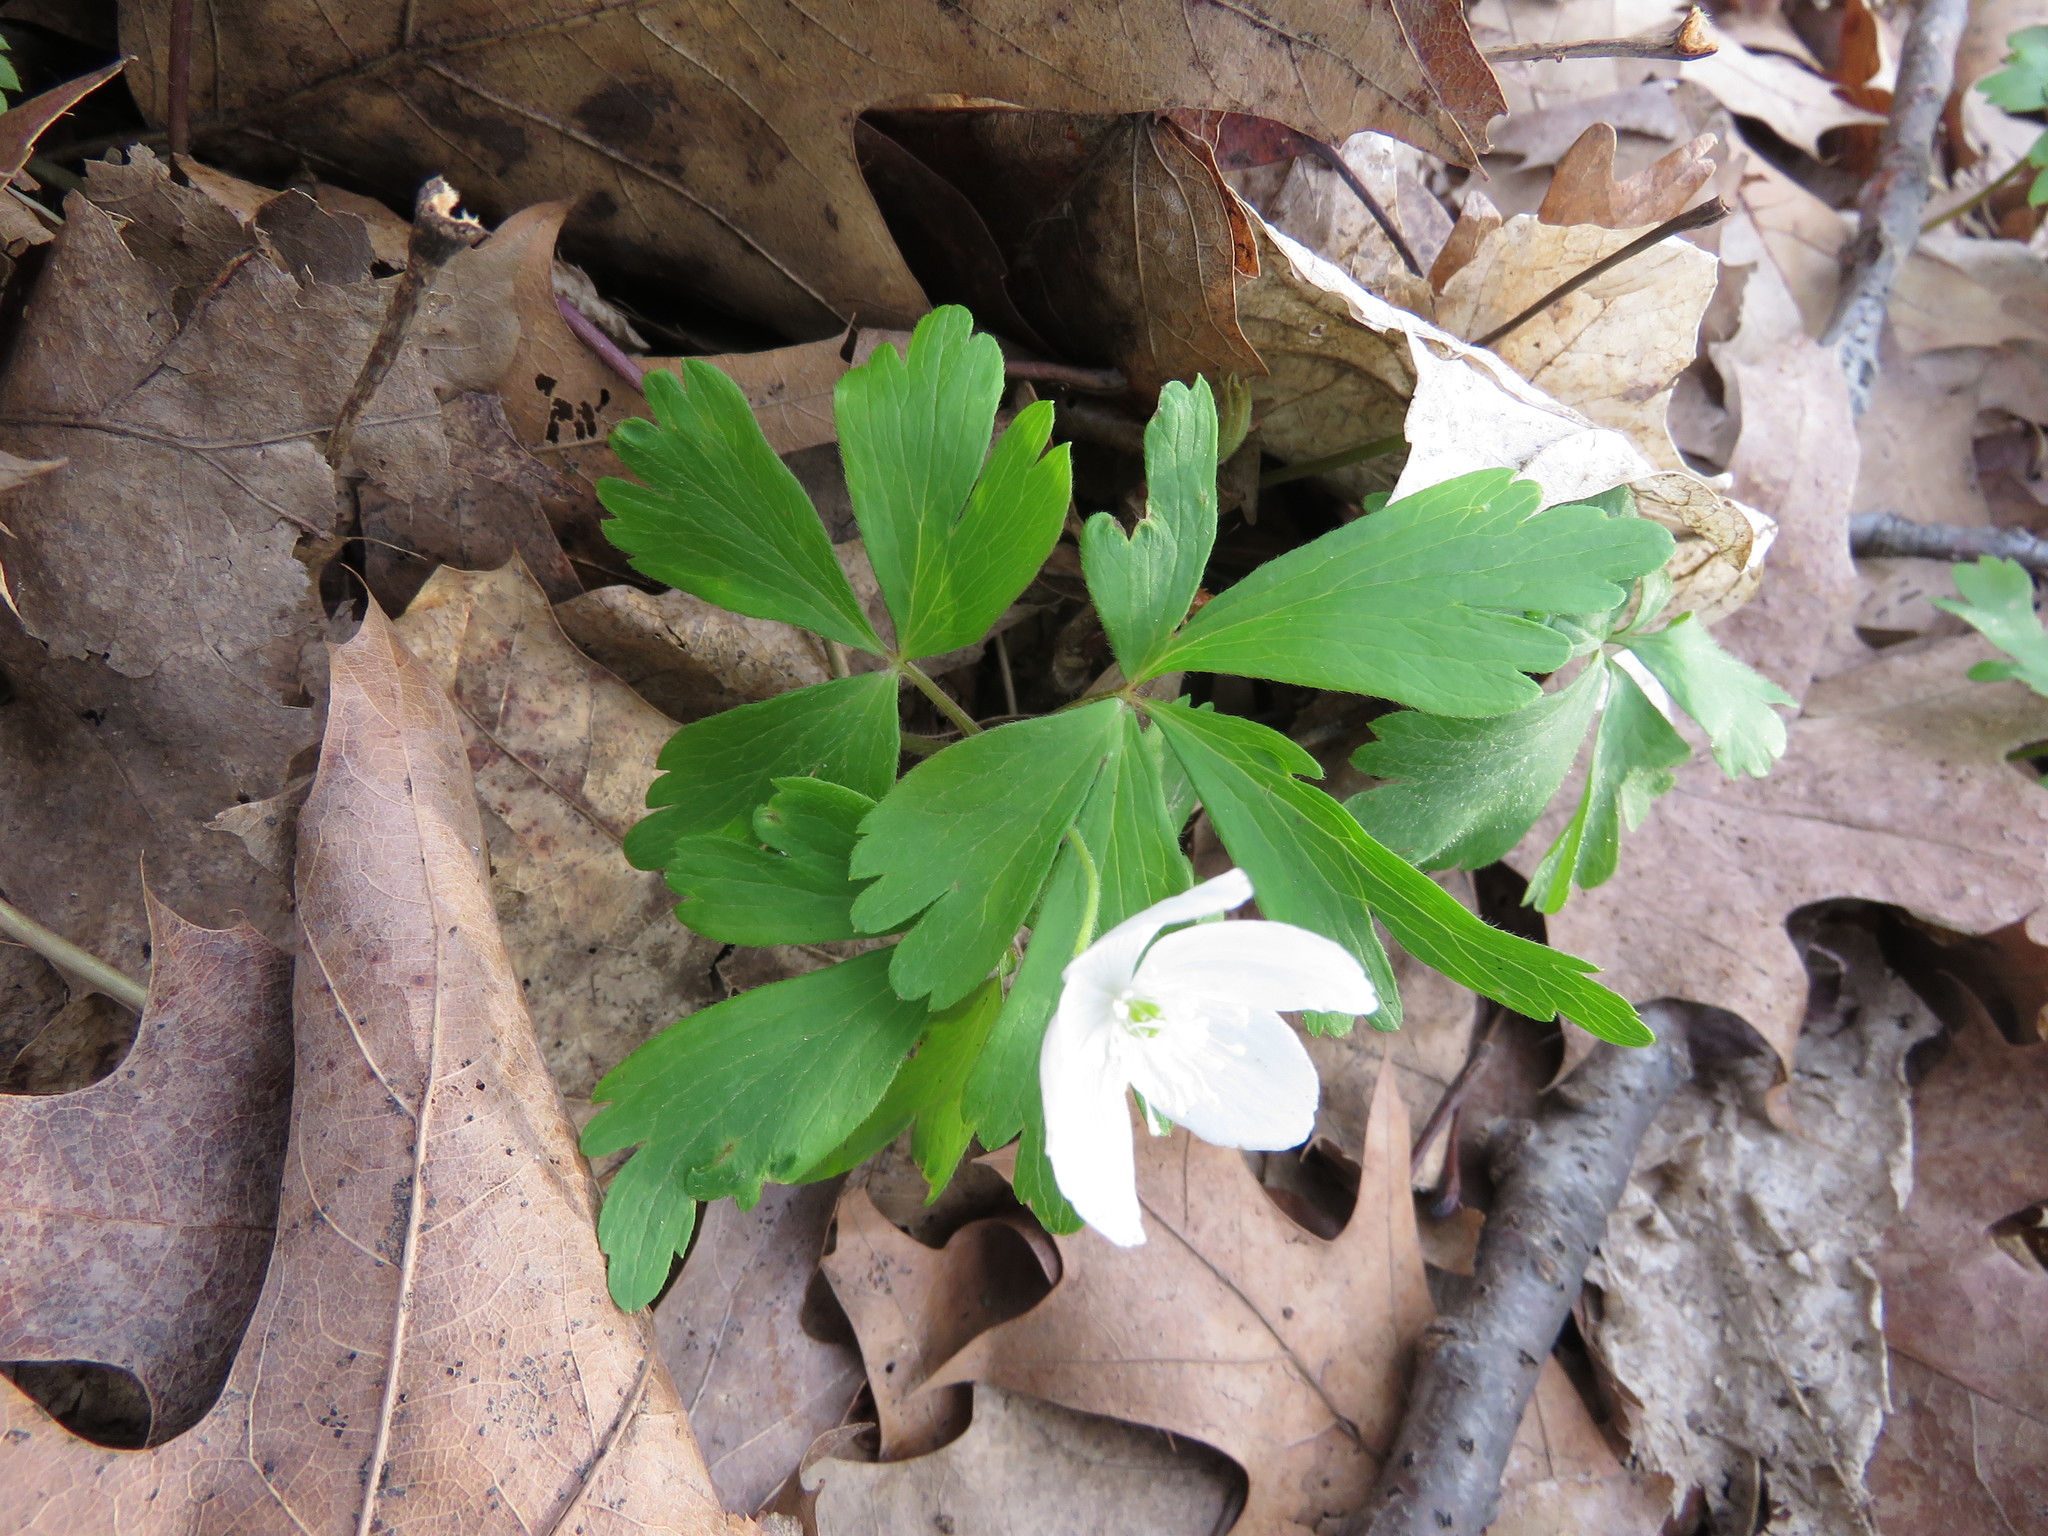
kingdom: Plantae
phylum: Tracheophyta
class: Magnoliopsida
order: Ranunculales
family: Ranunculaceae
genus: Anemone
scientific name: Anemone quinquefolia
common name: Wood anemone
